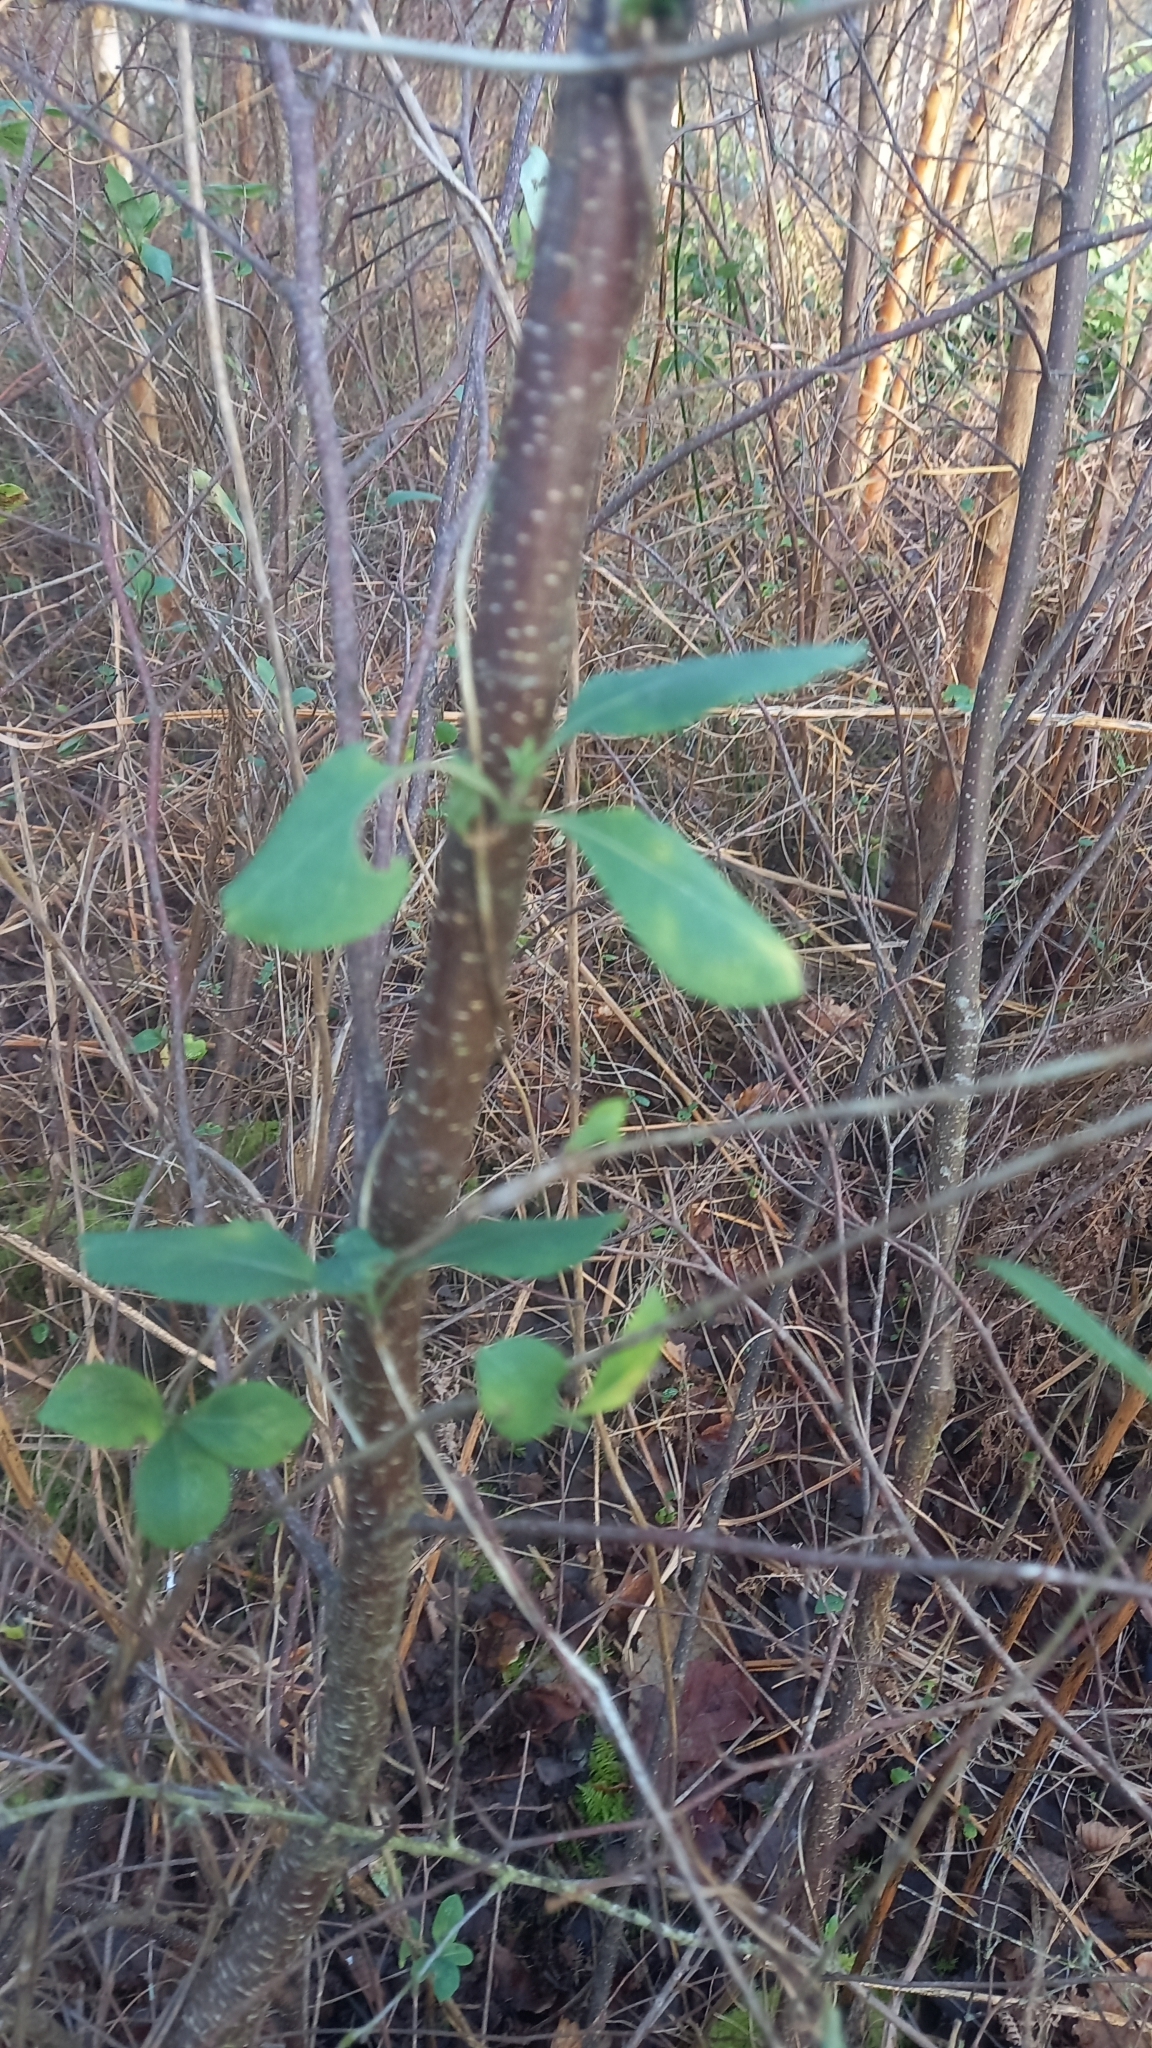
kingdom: Plantae
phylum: Tracheophyta
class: Magnoliopsida
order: Dipsacales
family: Caprifoliaceae
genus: Lonicera
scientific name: Lonicera periclymenum
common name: European honeysuckle
